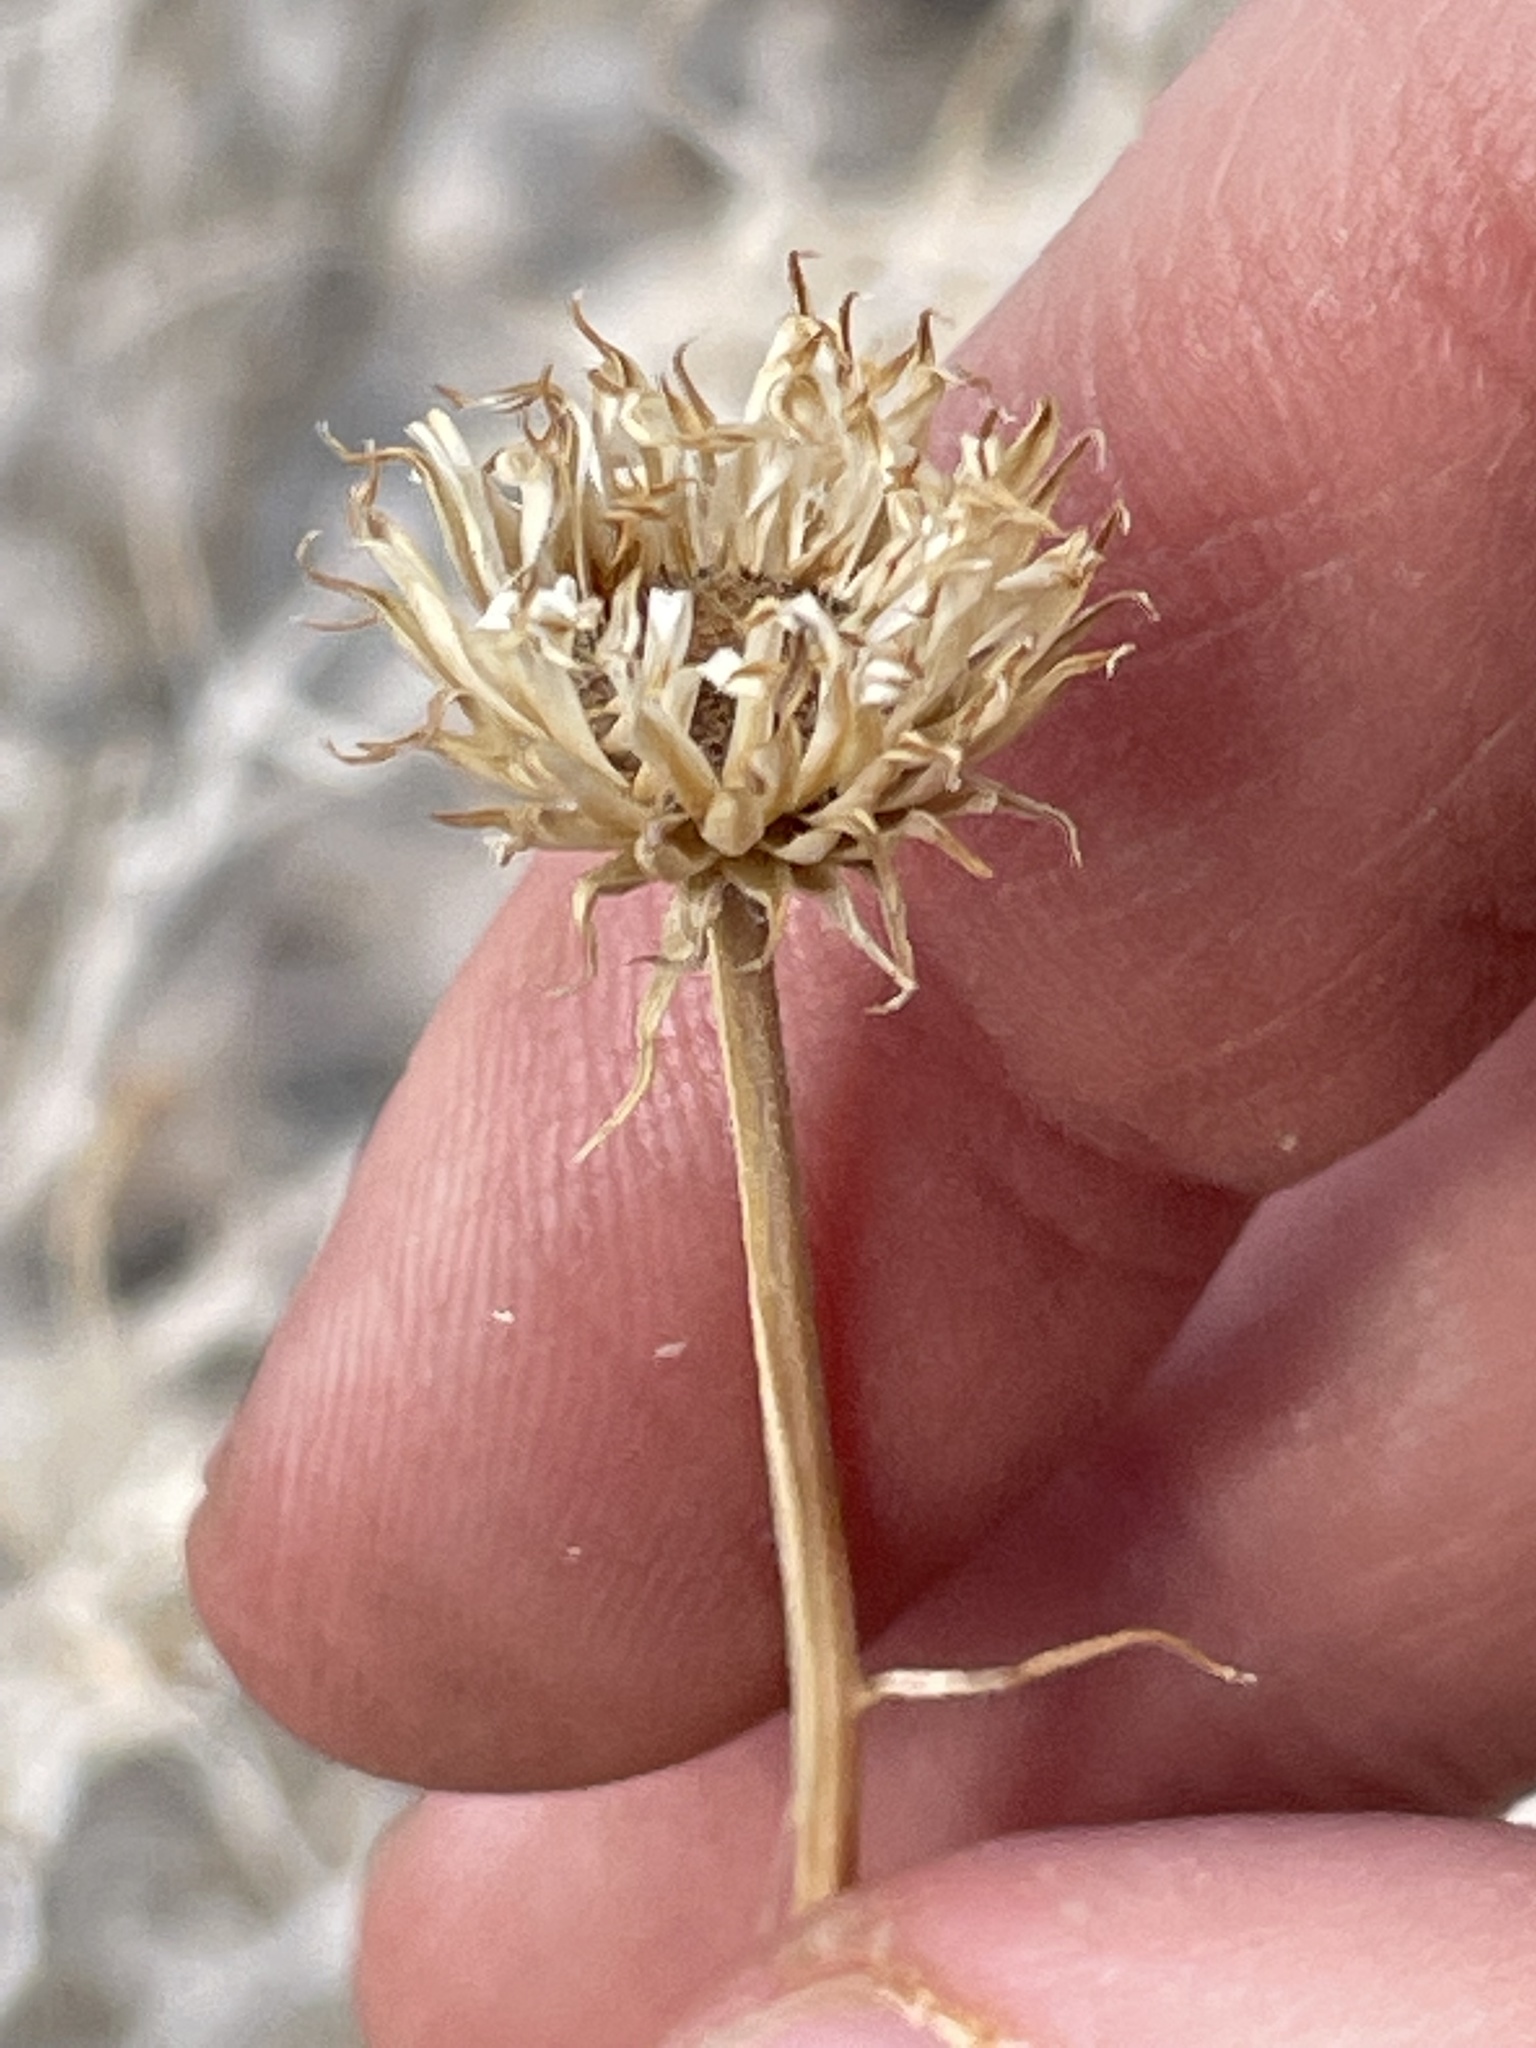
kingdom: Plantae
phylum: Tracheophyta
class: Magnoliopsida
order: Asterales
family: Asteraceae
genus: Xylorhiza
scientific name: Xylorhiza tortifolia
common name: Hurt-leaf woody-aster
